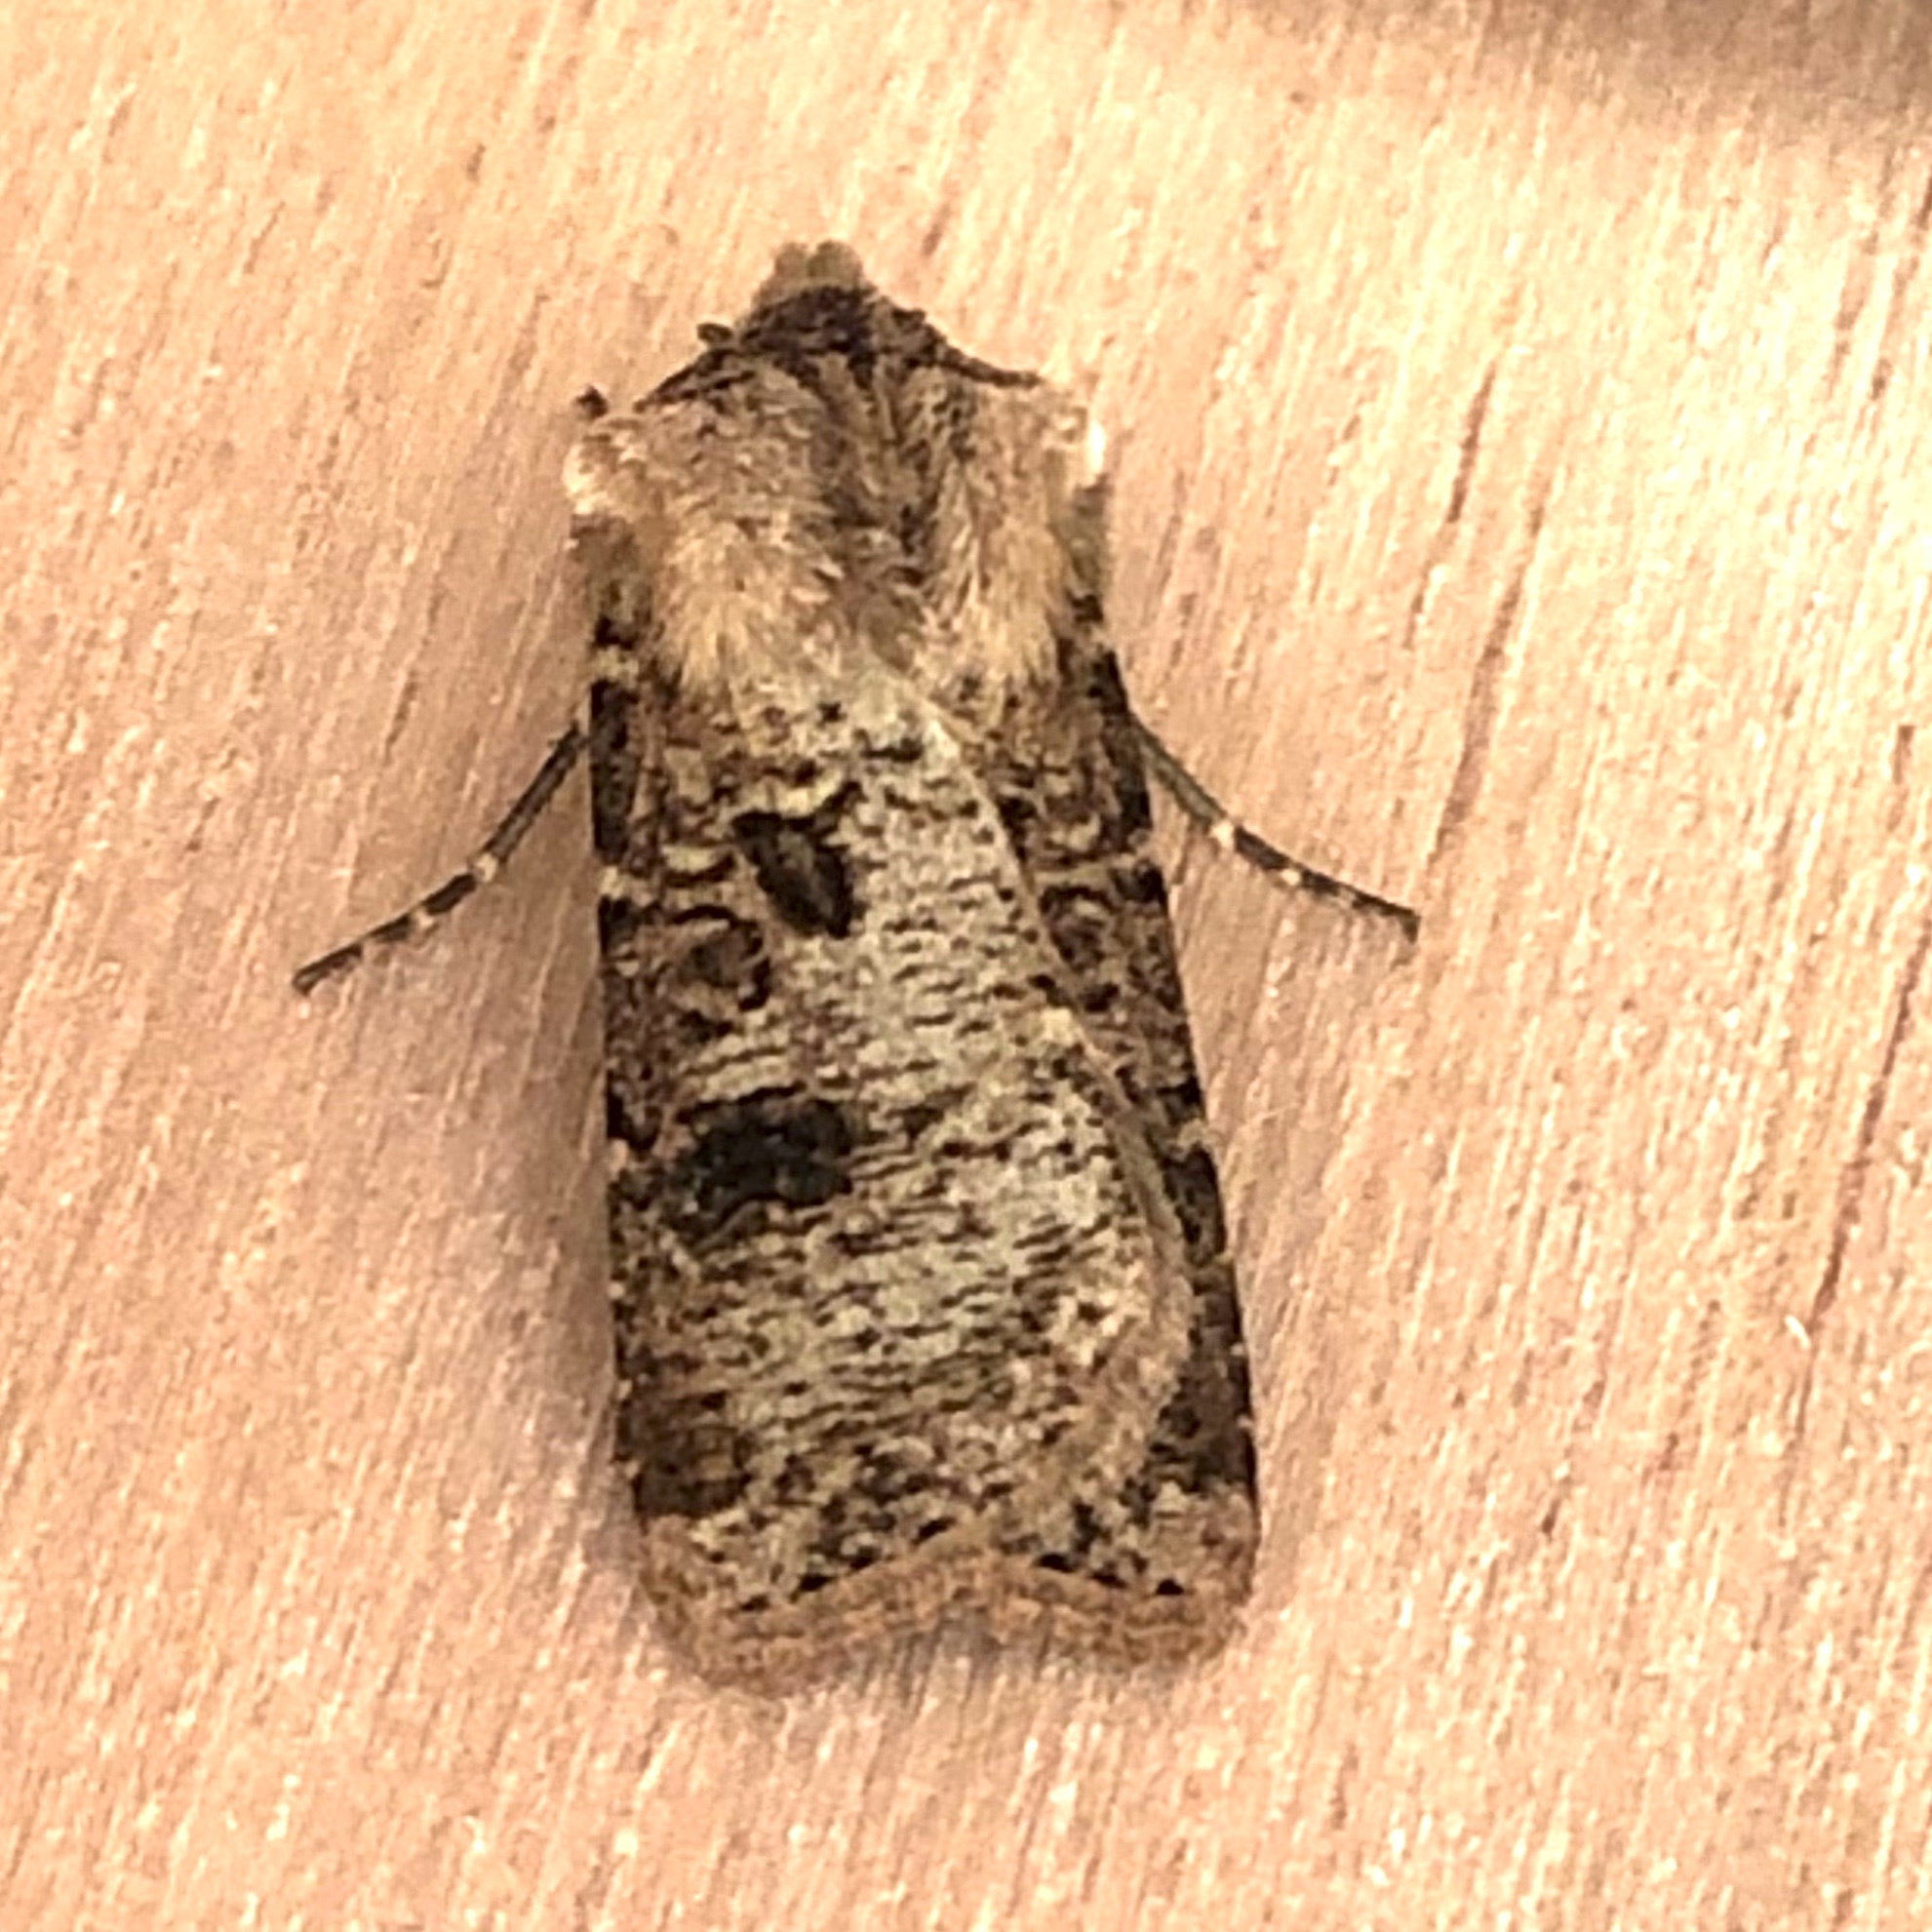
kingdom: Animalia
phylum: Arthropoda
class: Insecta
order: Lepidoptera
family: Noctuidae
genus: Agrotis
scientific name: Agrotis clavis
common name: Heart and club
